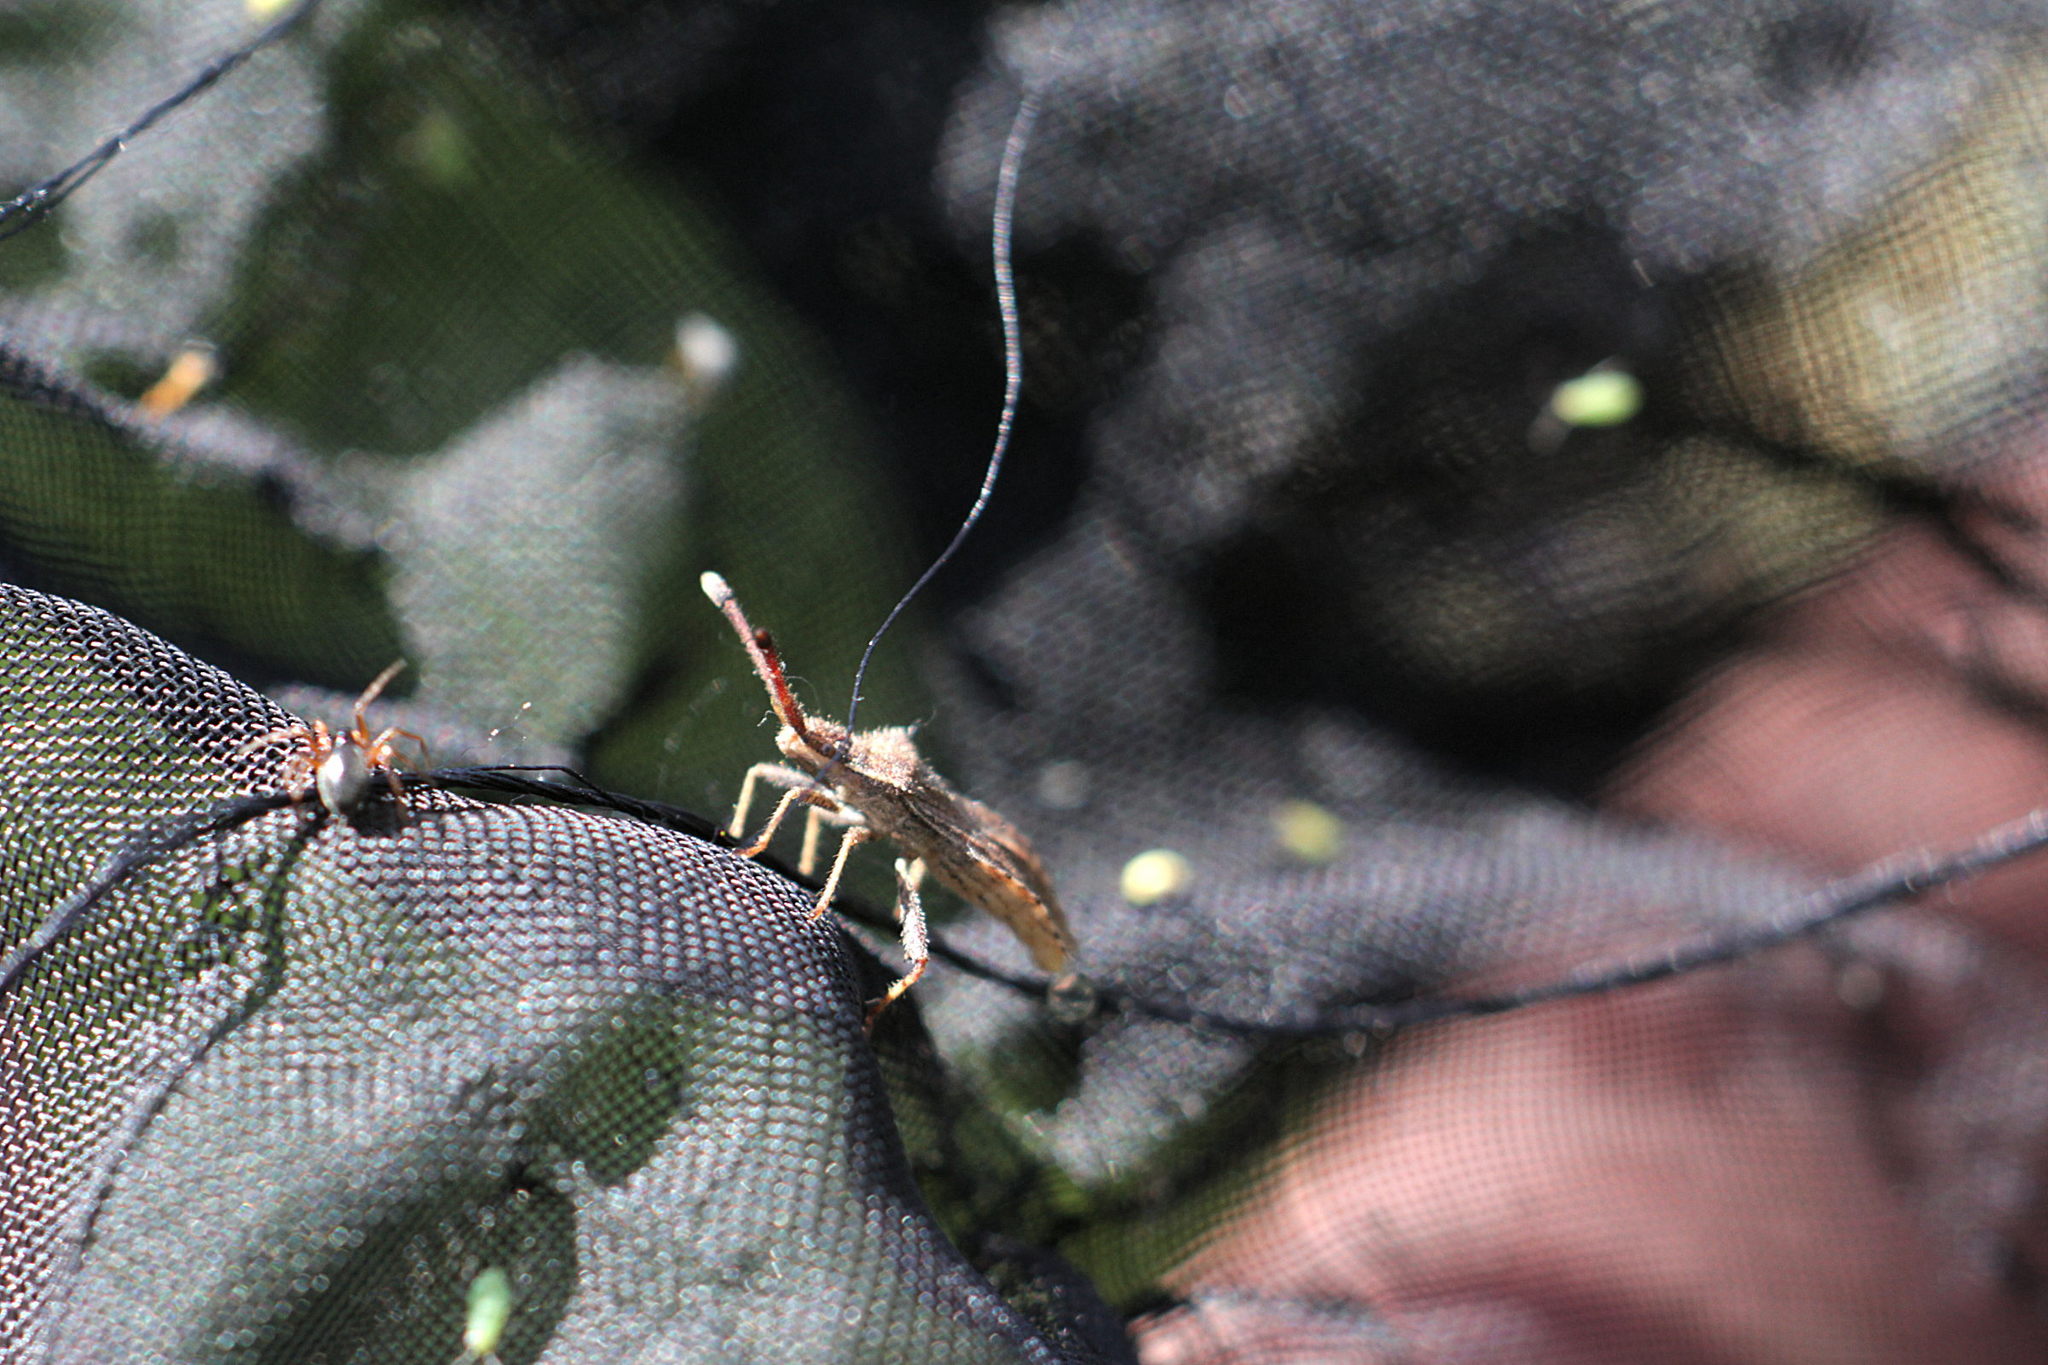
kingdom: Animalia
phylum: Arthropoda
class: Insecta
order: Hemiptera
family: Coreidae
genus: Coriomeris
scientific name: Coriomeris denticulatus
